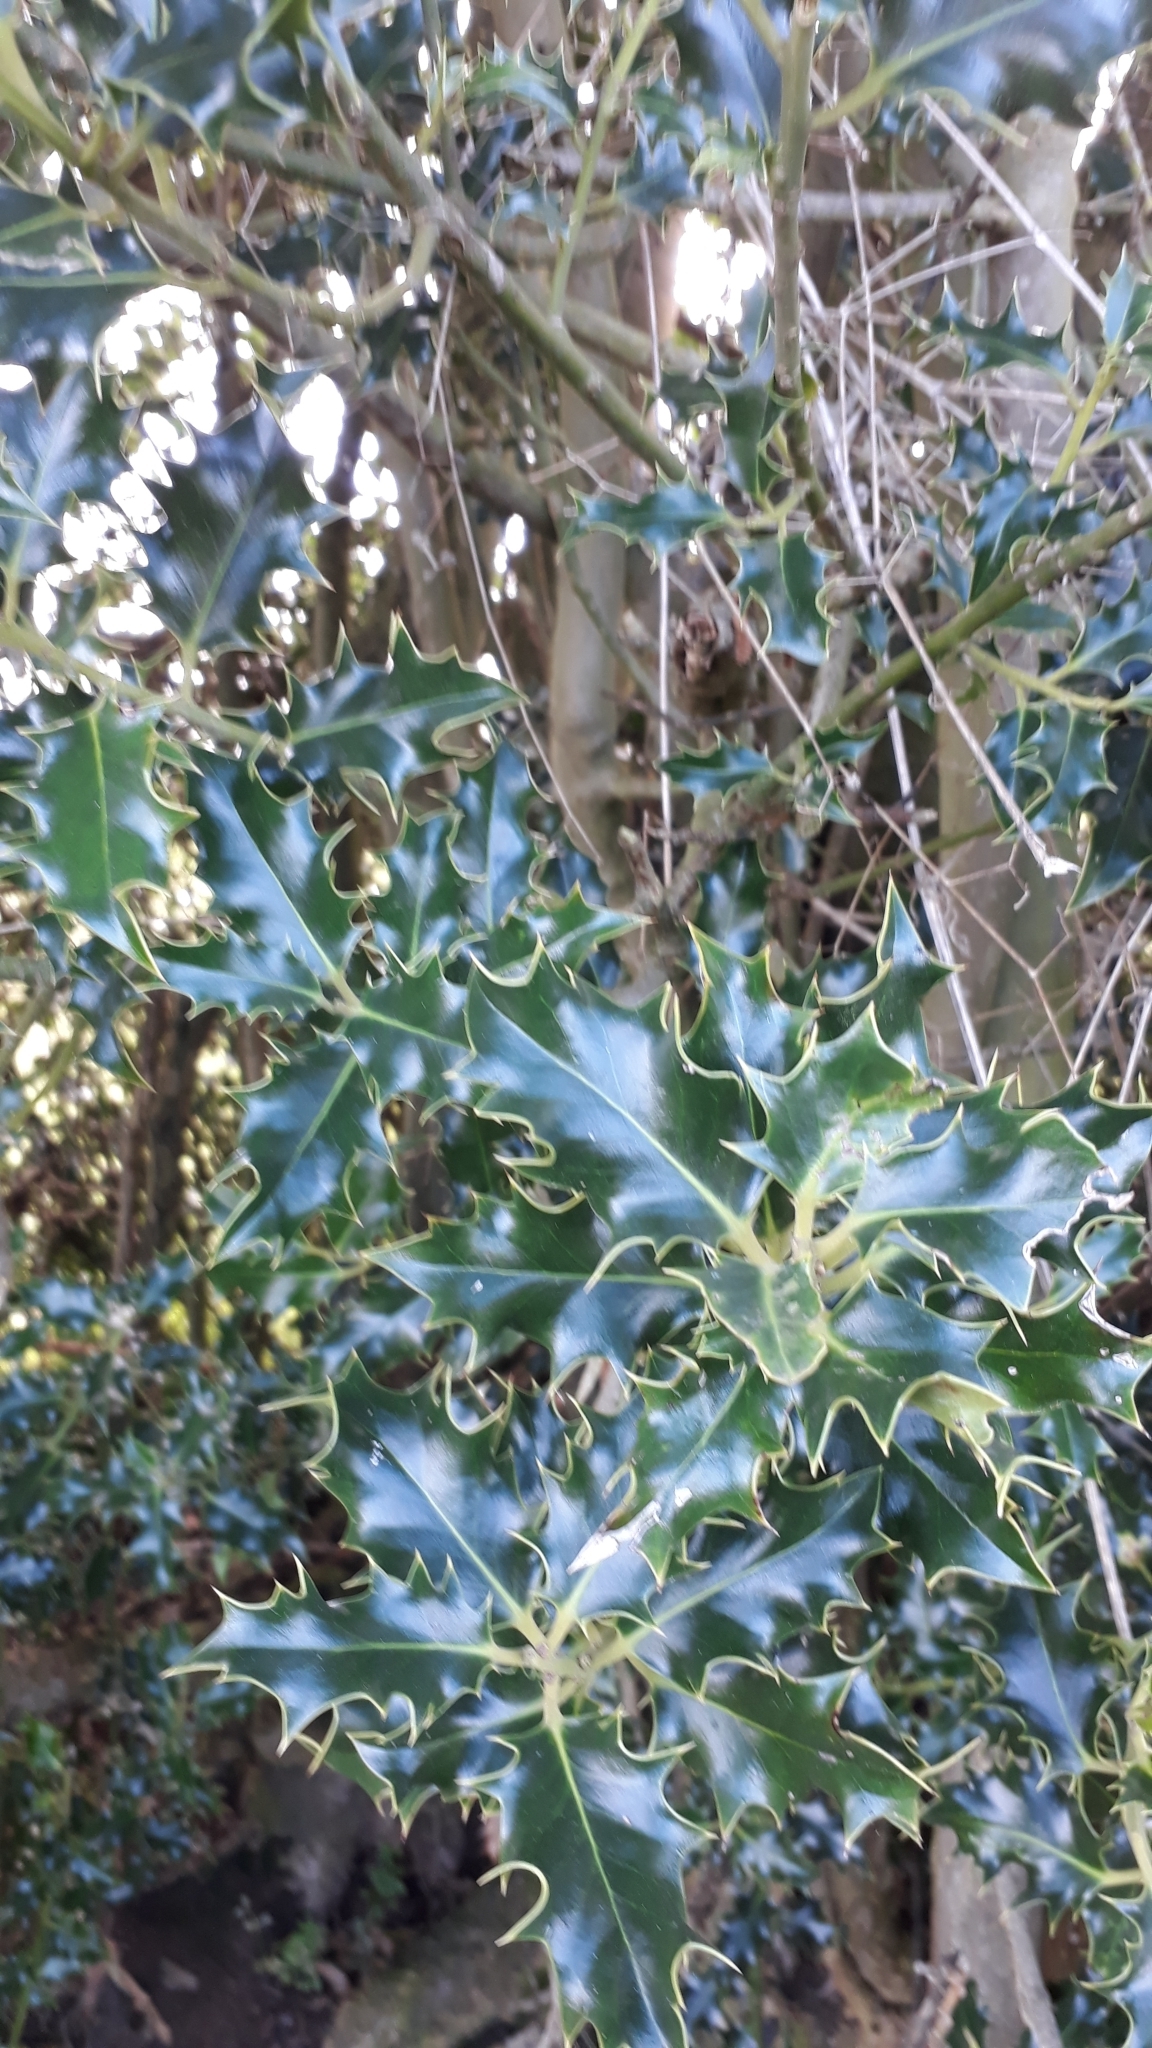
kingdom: Plantae
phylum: Tracheophyta
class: Magnoliopsida
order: Aquifoliales
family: Aquifoliaceae
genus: Ilex
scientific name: Ilex aquifolium
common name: English holly
